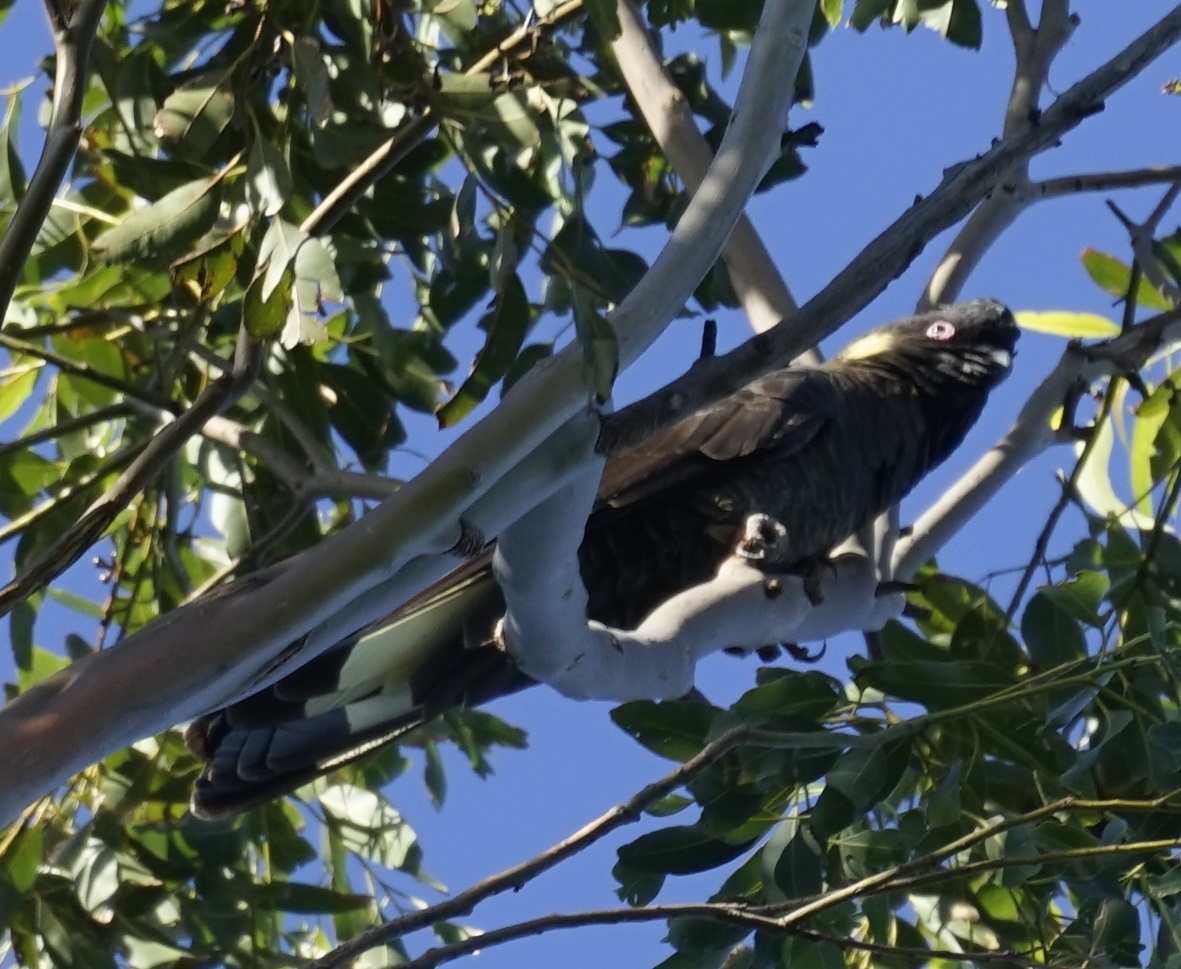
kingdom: Animalia
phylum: Chordata
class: Aves
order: Psittaciformes
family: Cacatuidae
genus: Zanda
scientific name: Zanda funerea
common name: Yellow-tailed black-cockatoo
